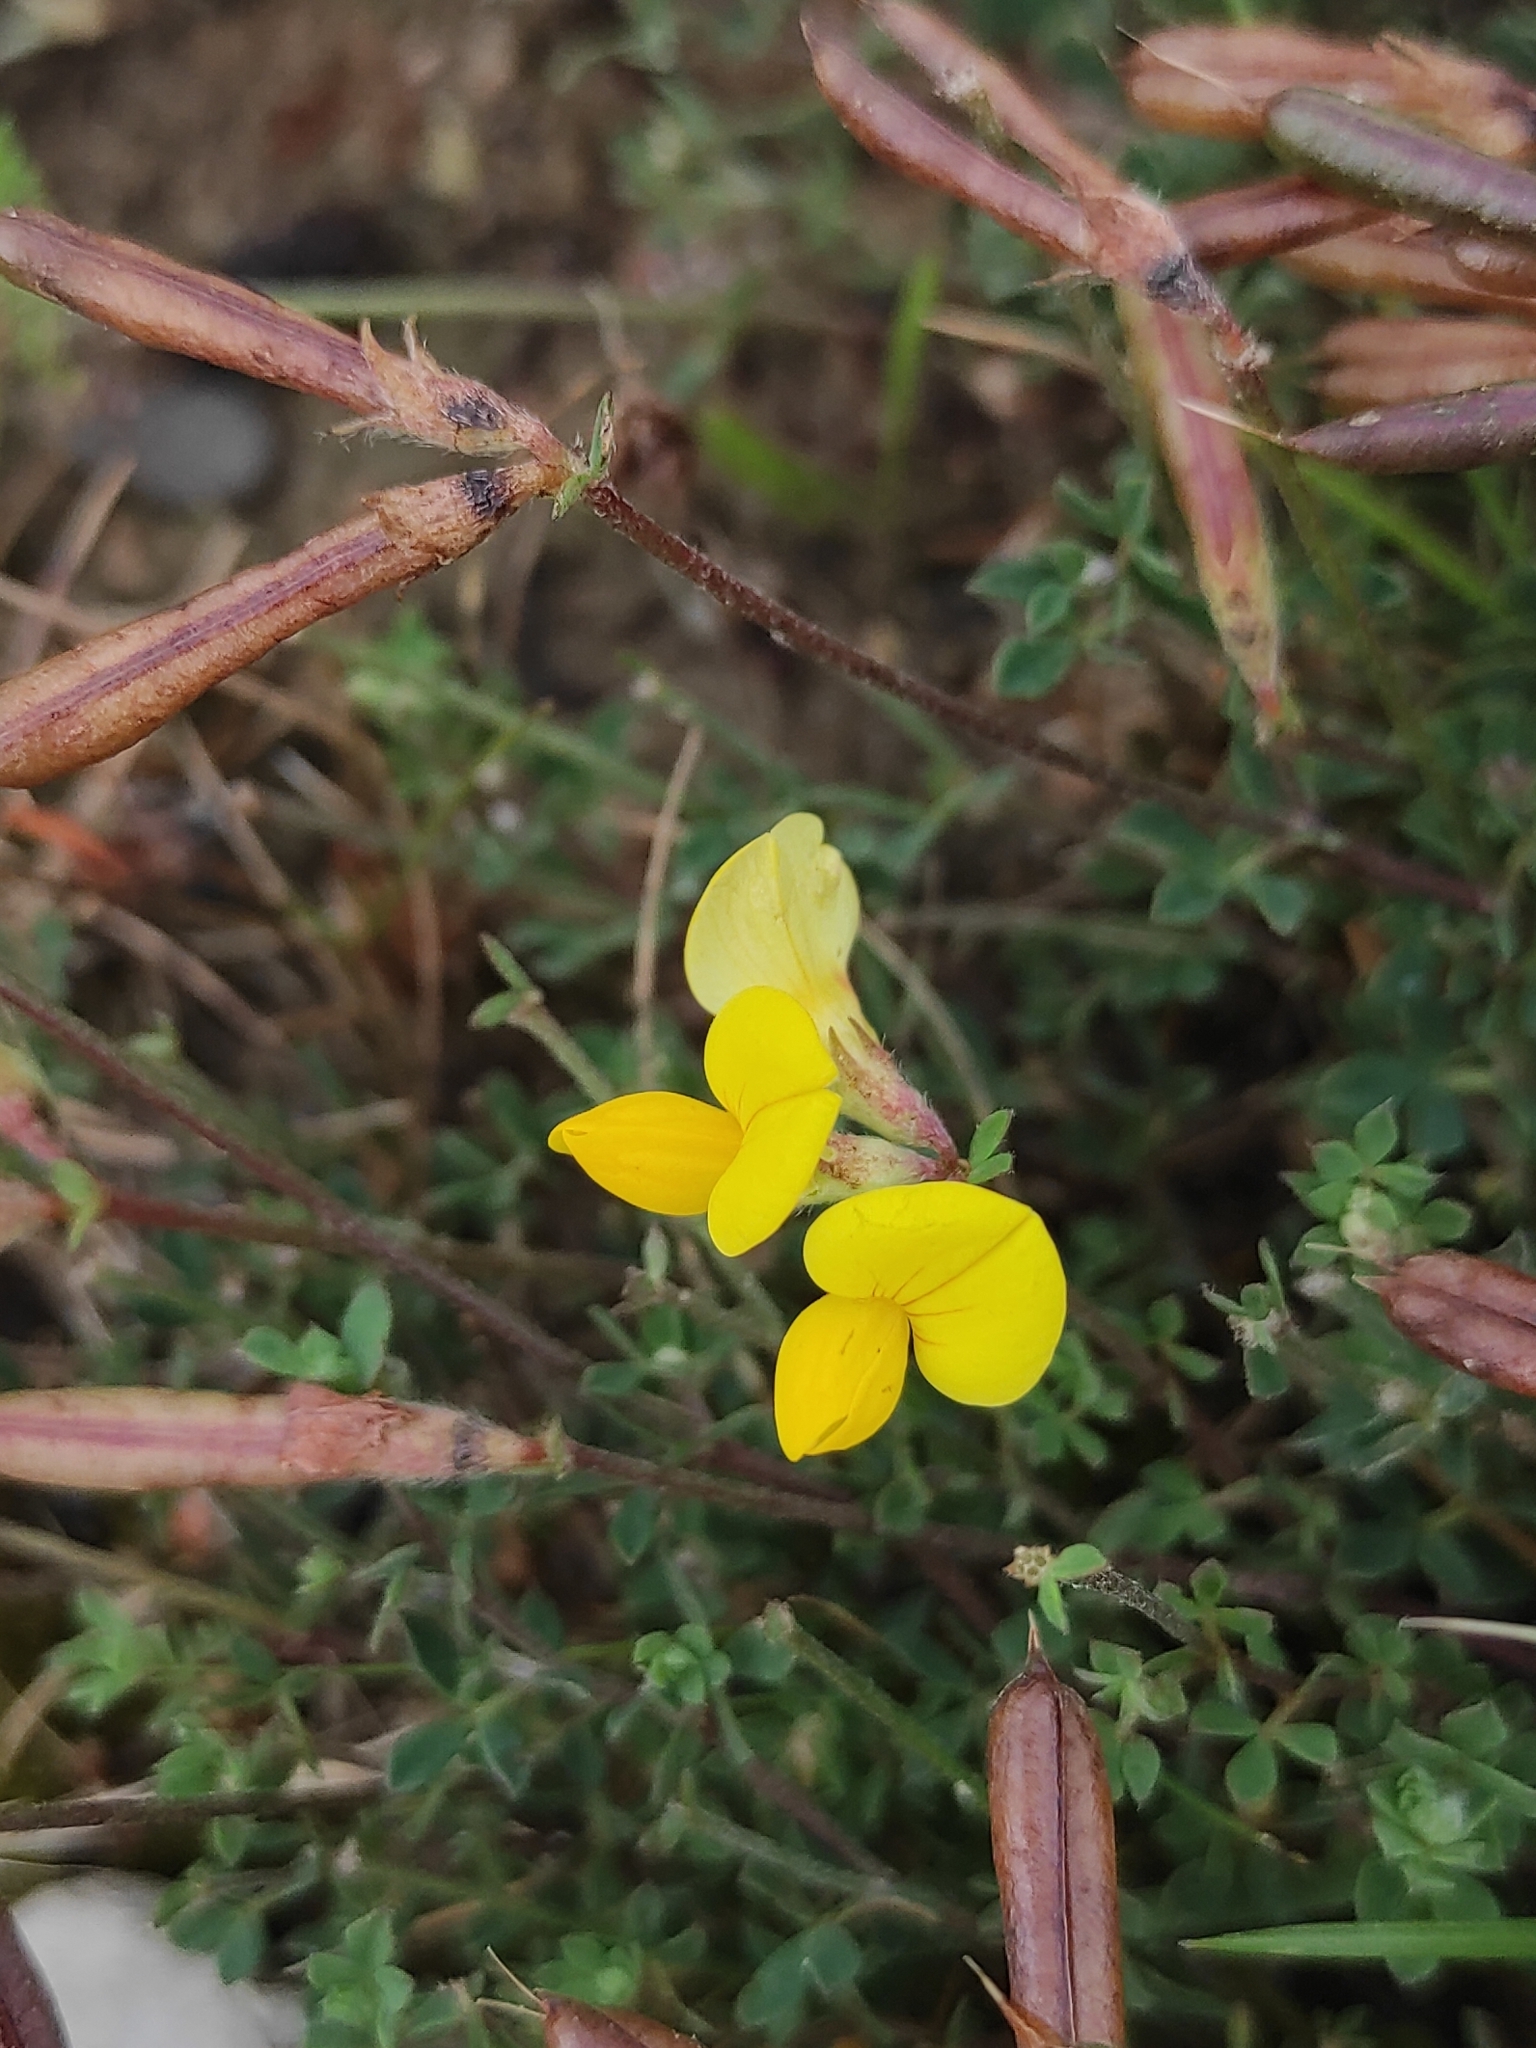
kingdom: Plantae
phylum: Tracheophyta
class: Magnoliopsida
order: Fabales
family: Fabaceae
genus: Lotus
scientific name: Lotus corniculatus
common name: Common bird's-foot-trefoil
